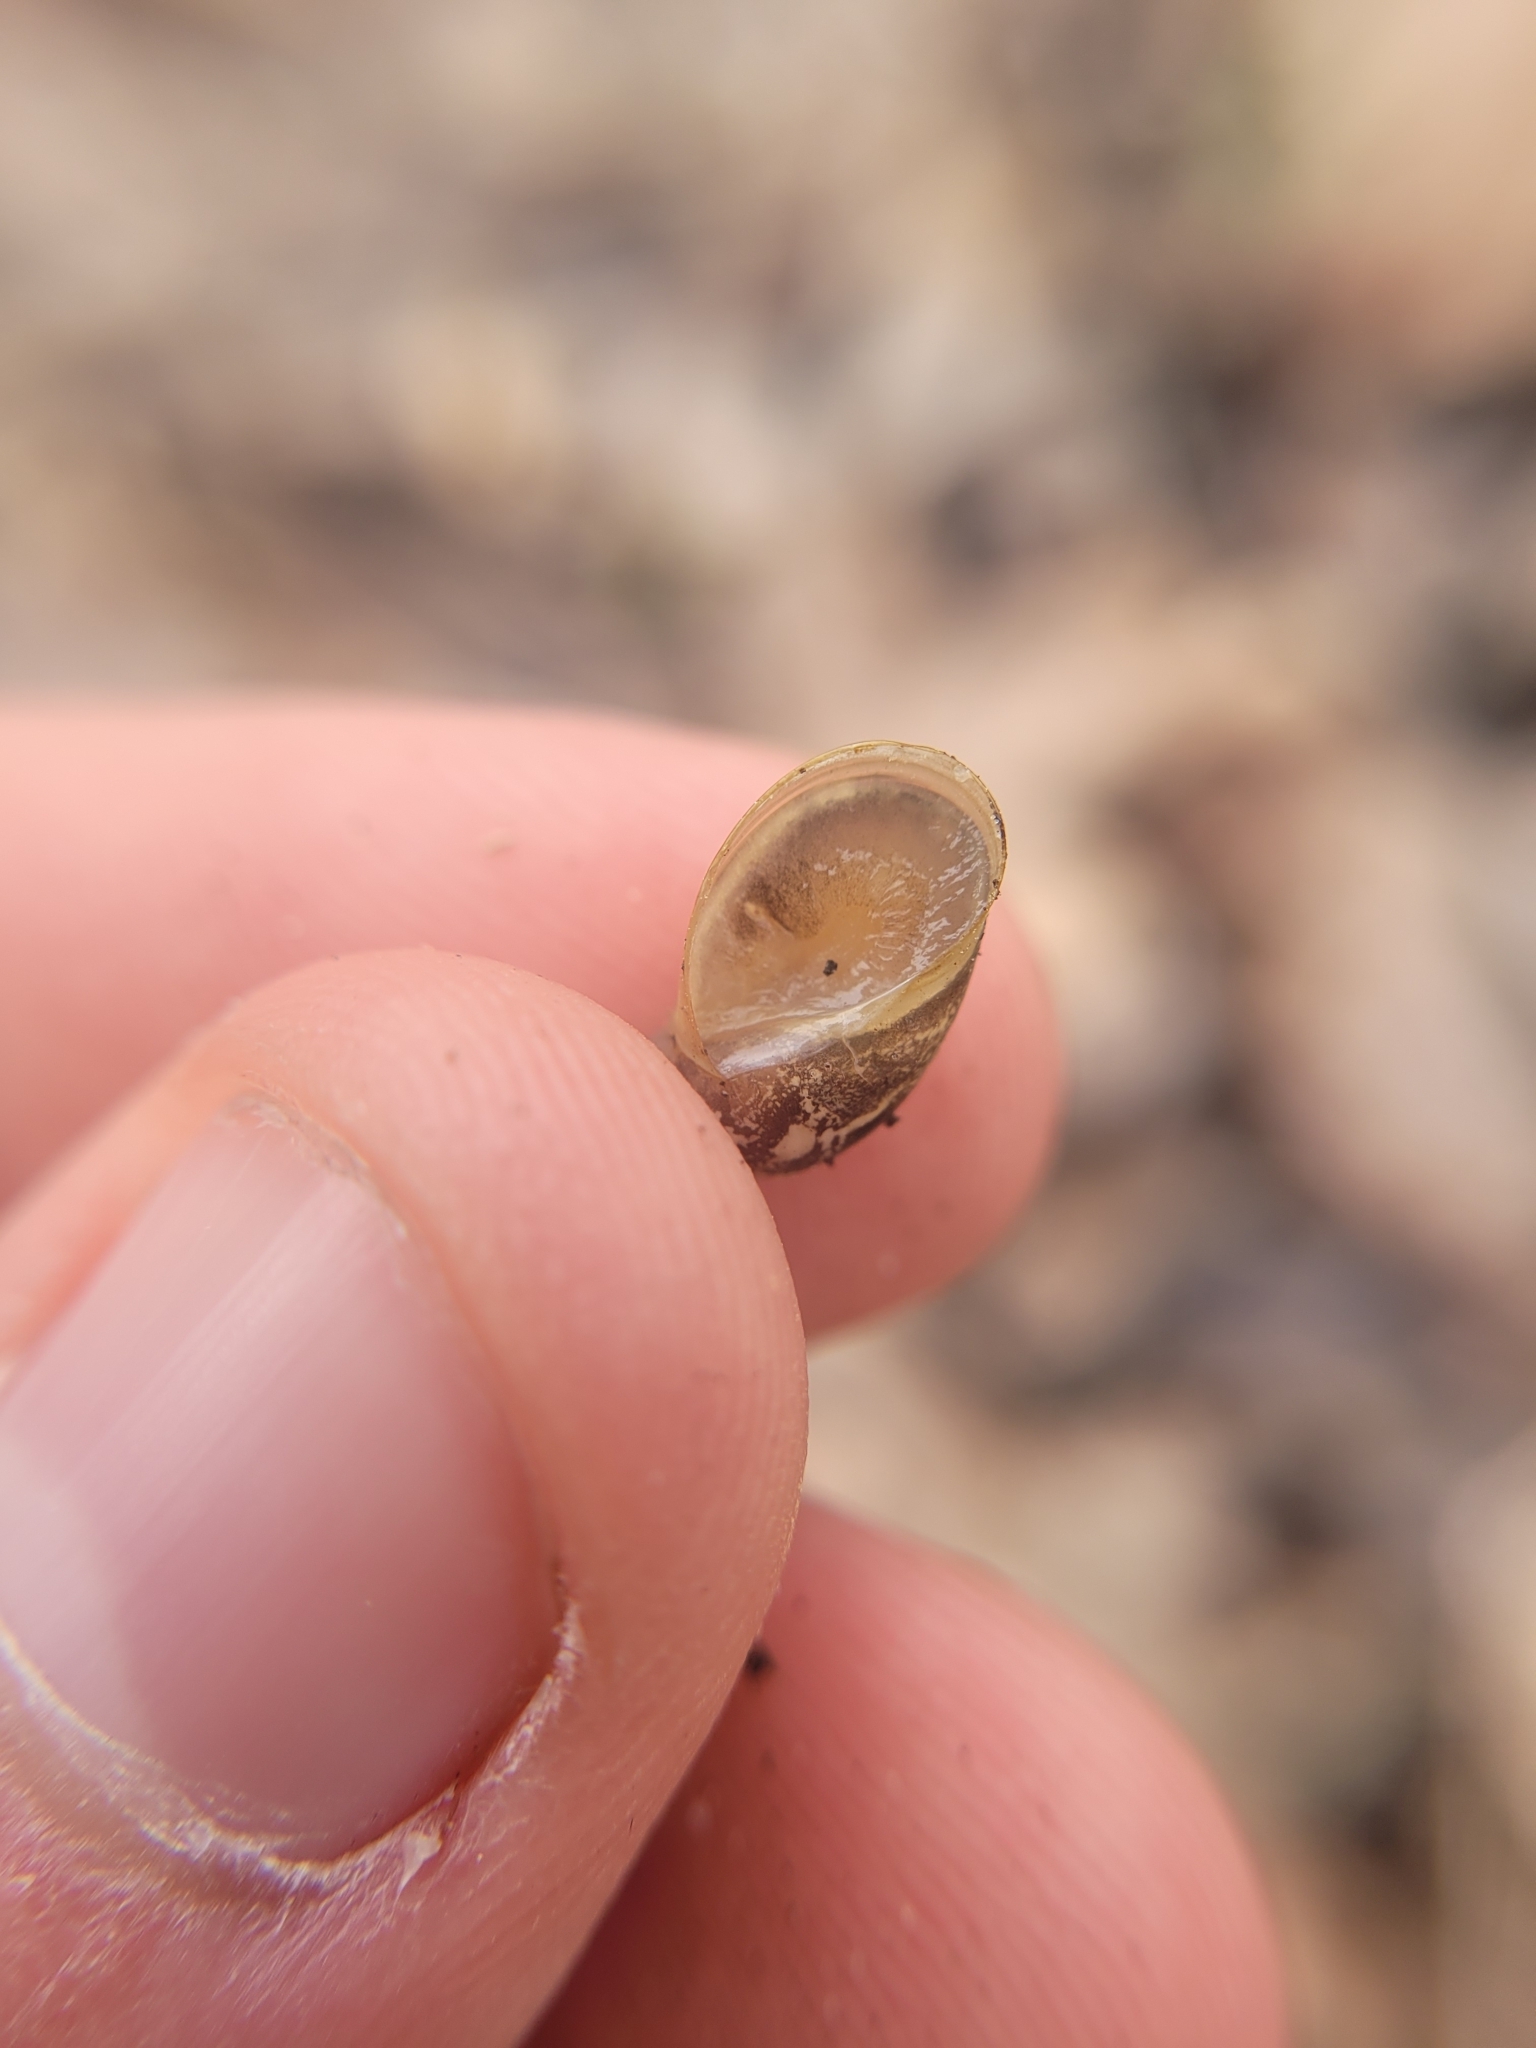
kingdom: Animalia
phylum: Mollusca
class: Gastropoda
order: Stylommatophora
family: Succineidae
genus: Succinea
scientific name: Succinea putris
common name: European ambersnail
